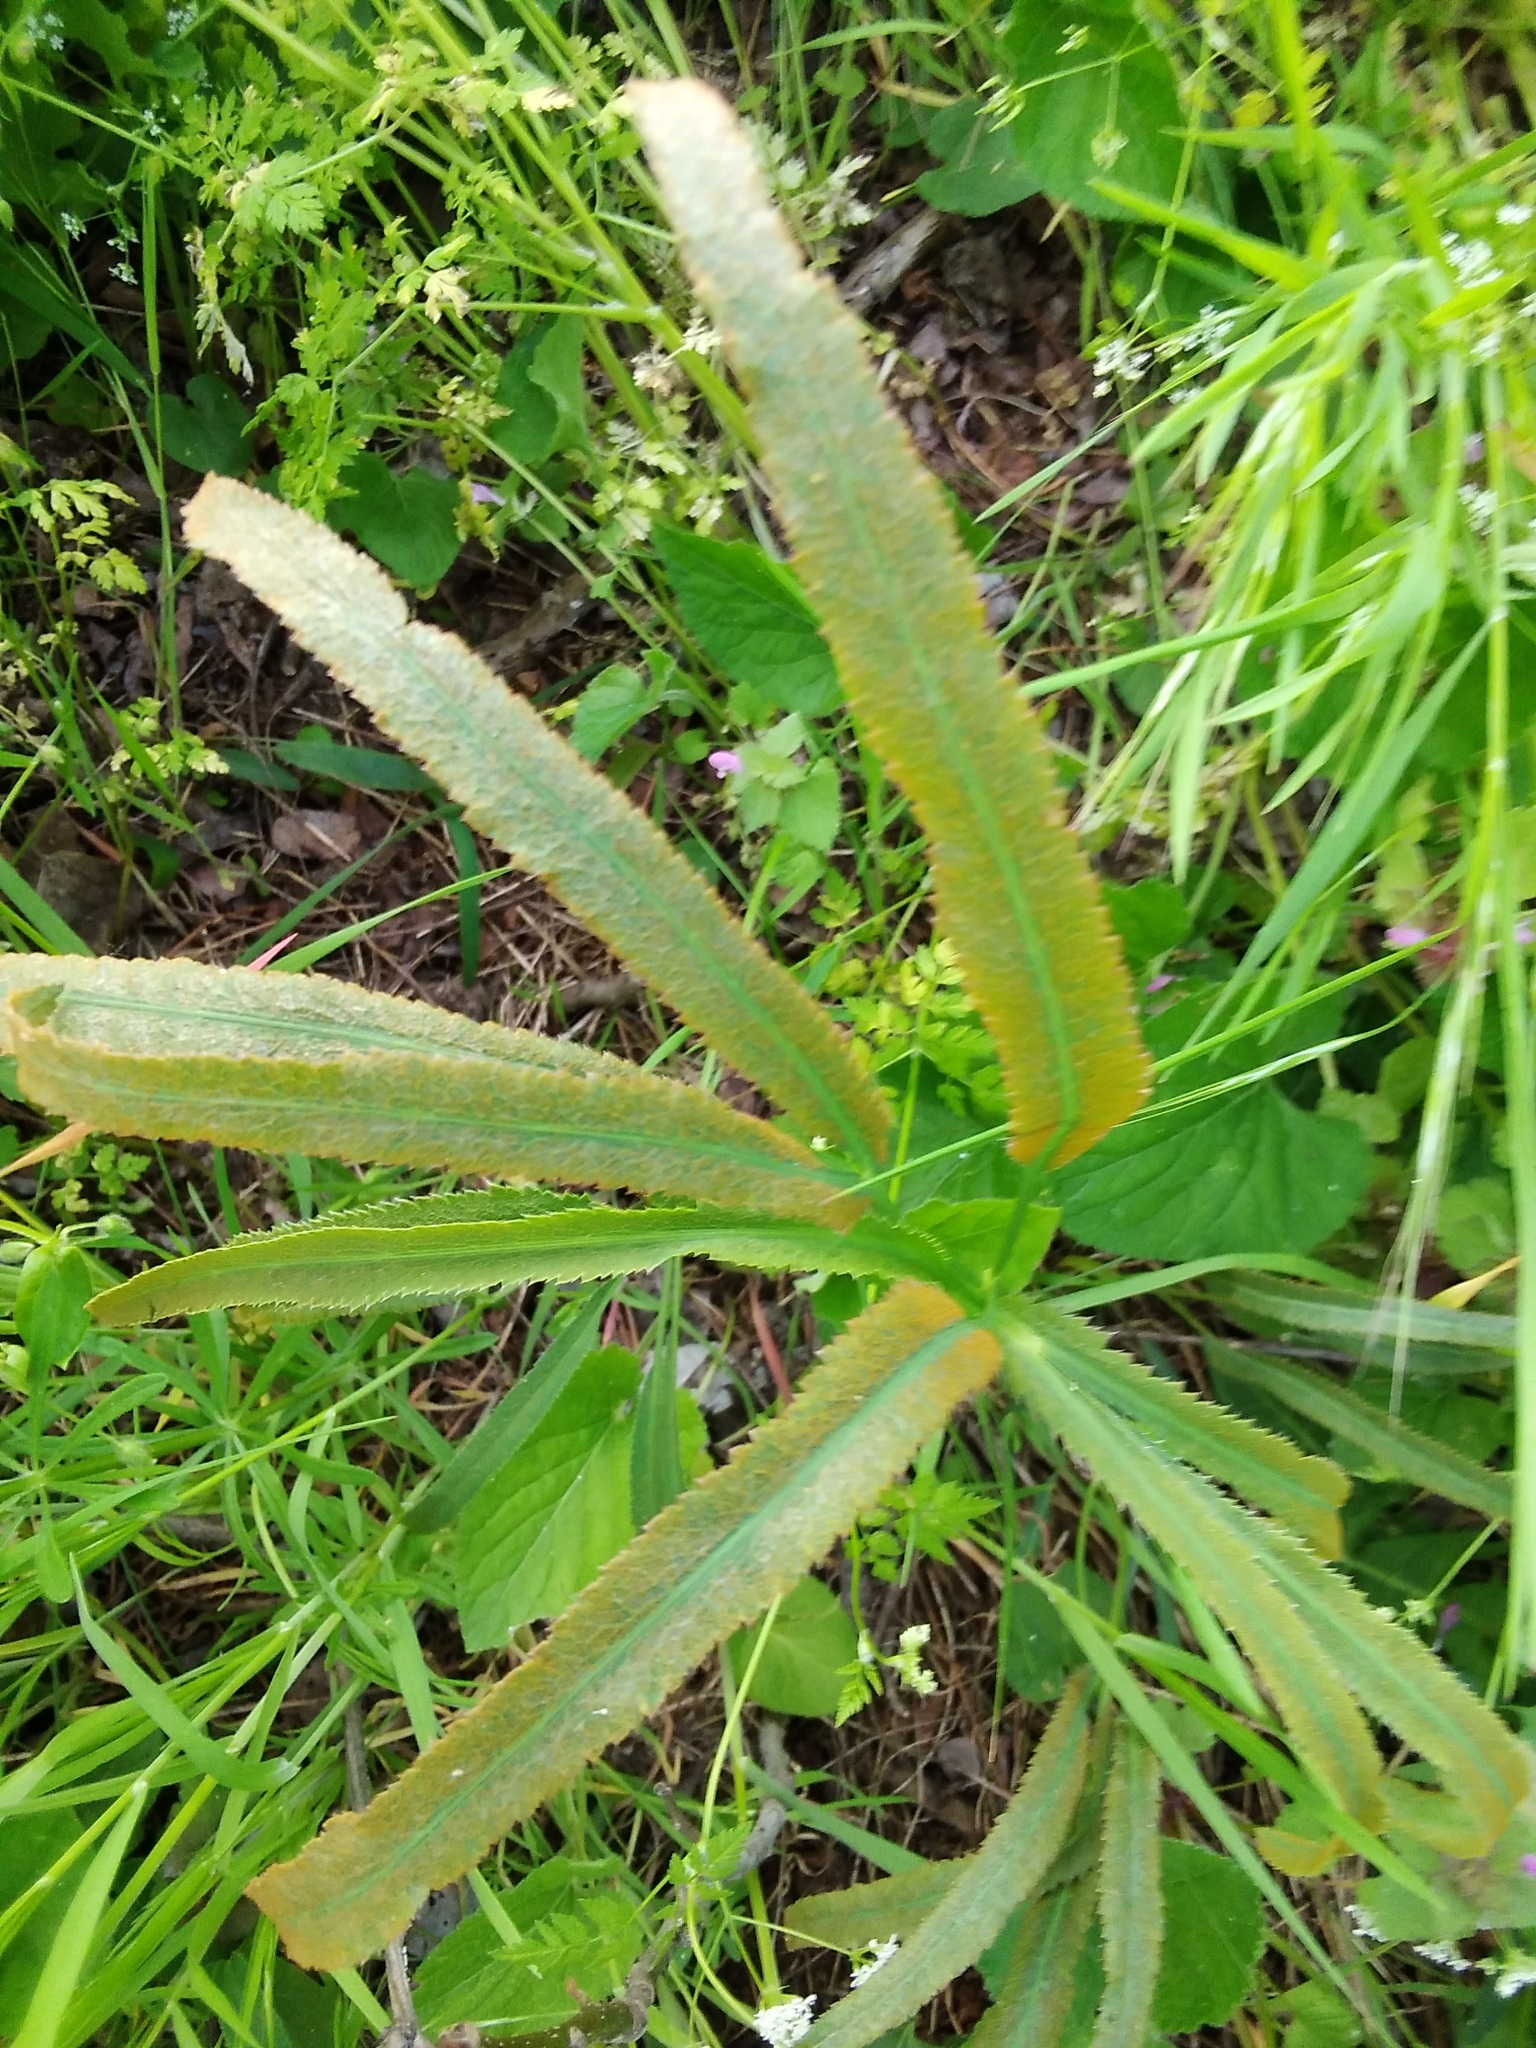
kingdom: Plantae
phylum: Tracheophyta
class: Magnoliopsida
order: Apiales
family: Apiaceae
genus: Falcaria
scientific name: Falcaria vulgaris
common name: Longleaf
